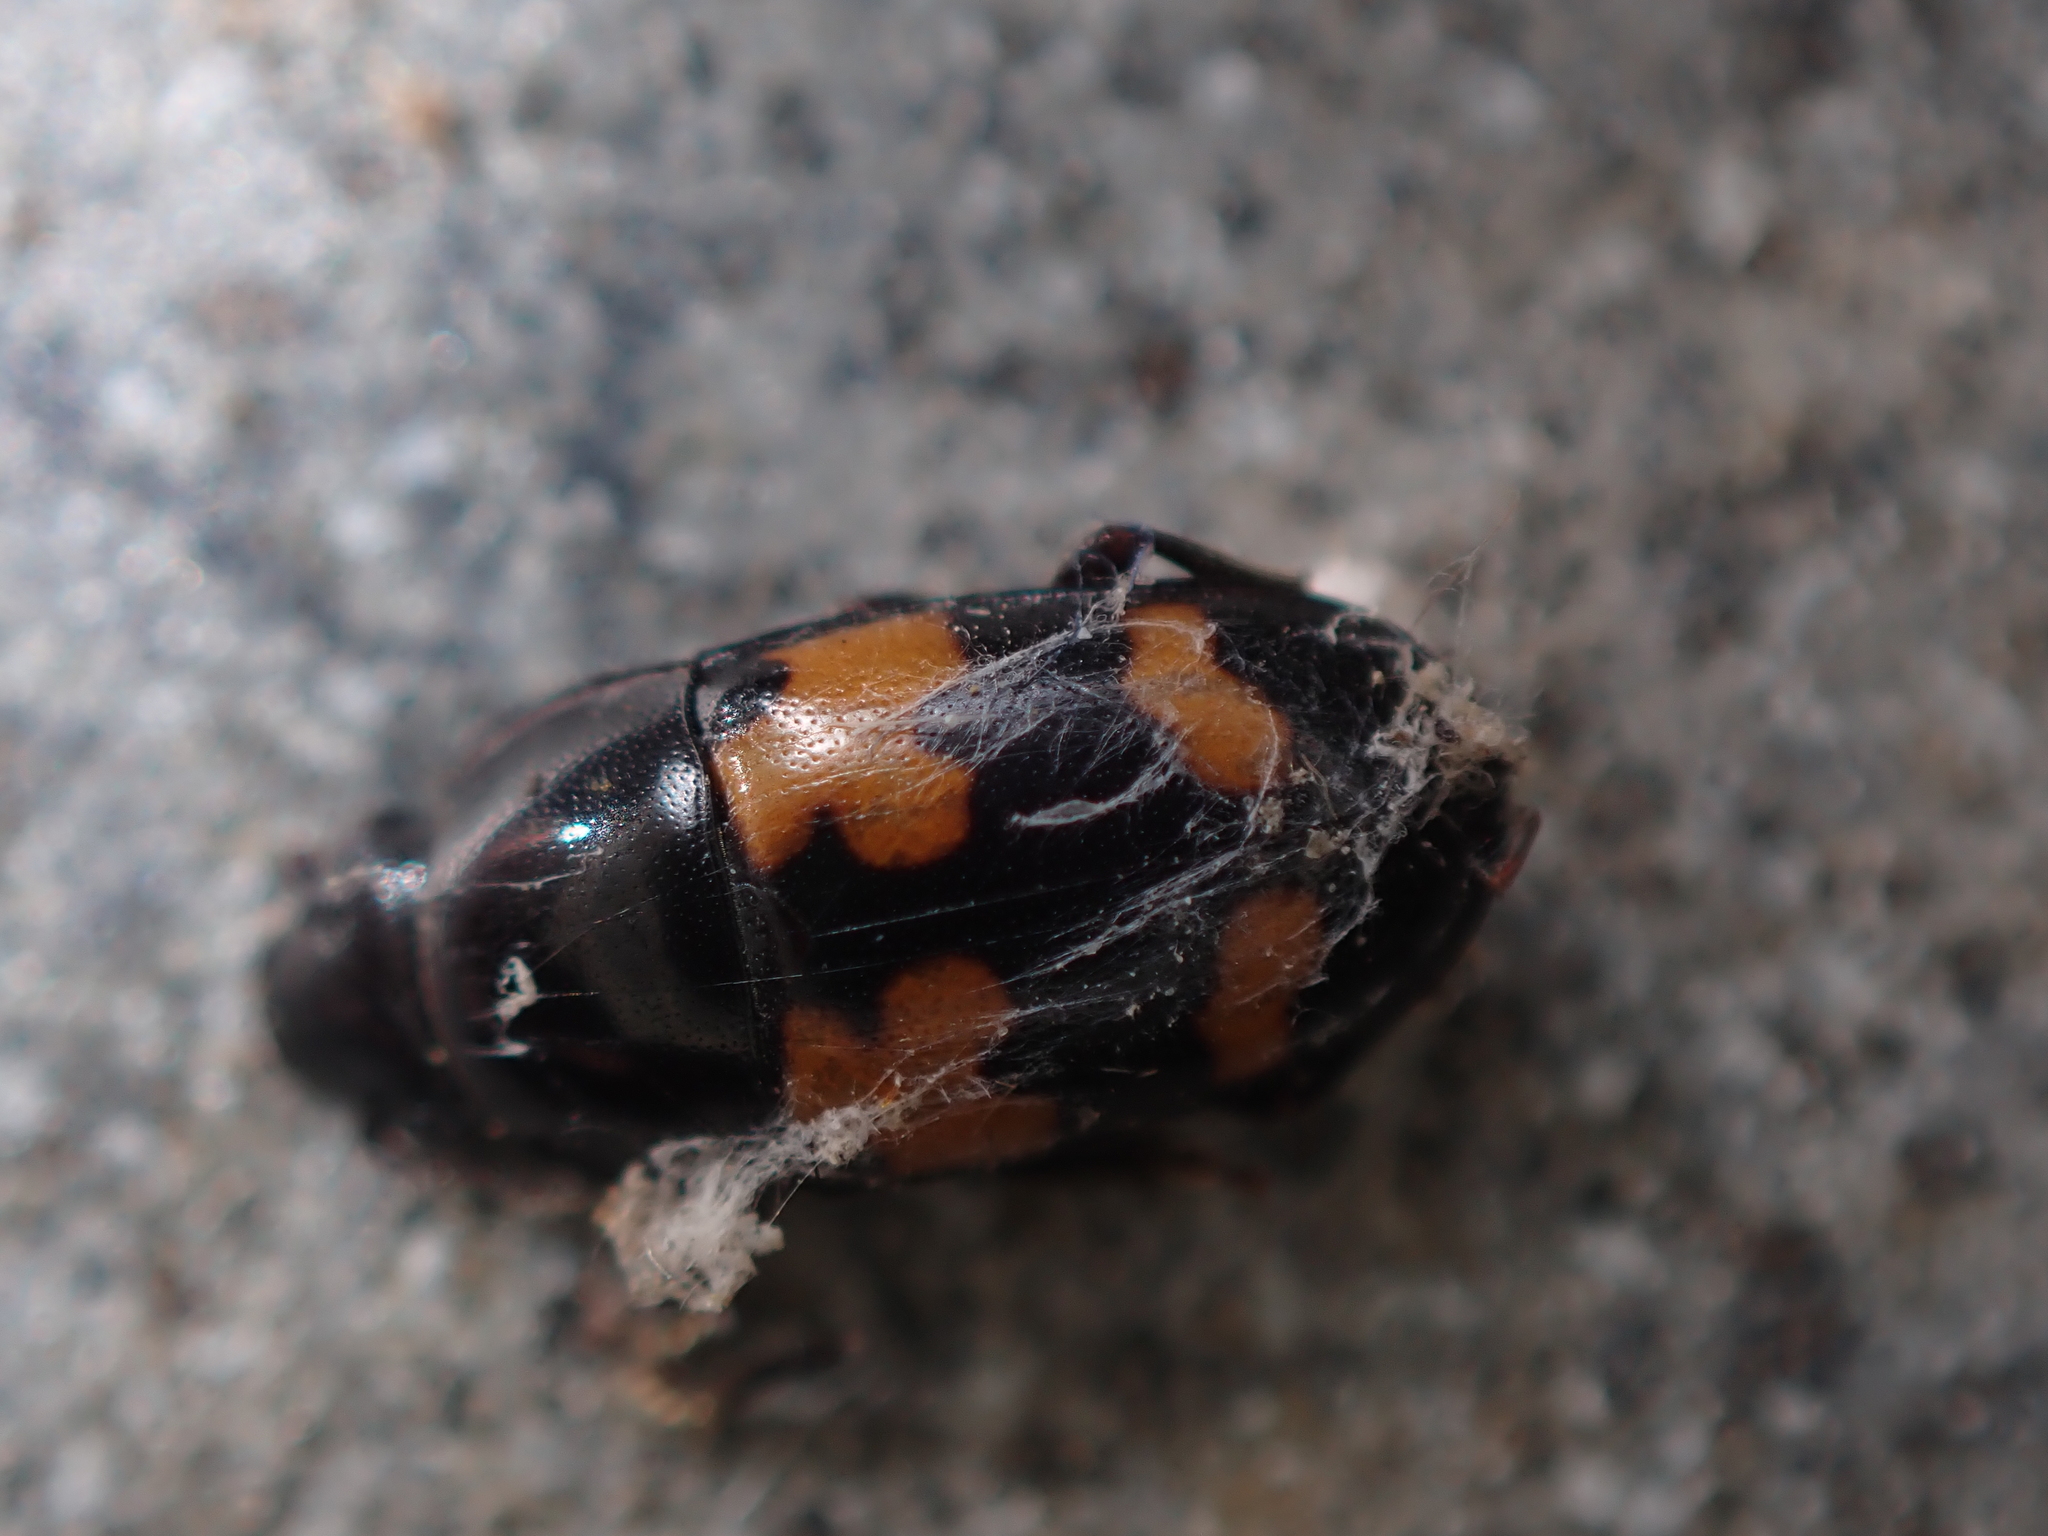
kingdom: Animalia
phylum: Arthropoda
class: Insecta
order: Coleoptera
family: Nitidulidae
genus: Glischrochilus
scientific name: Glischrochilus fasciatus
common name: Picnic beetle
